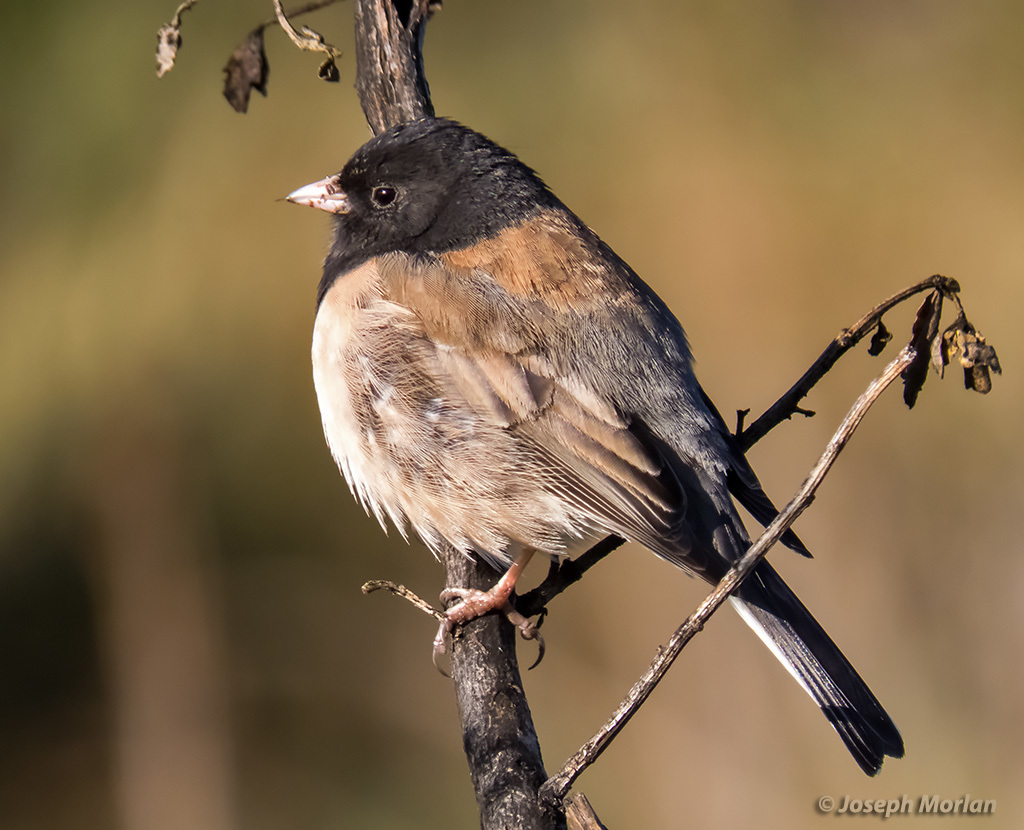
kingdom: Animalia
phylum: Chordata
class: Aves
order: Passeriformes
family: Passerellidae
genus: Junco
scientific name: Junco hyemalis
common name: Dark-eyed junco
